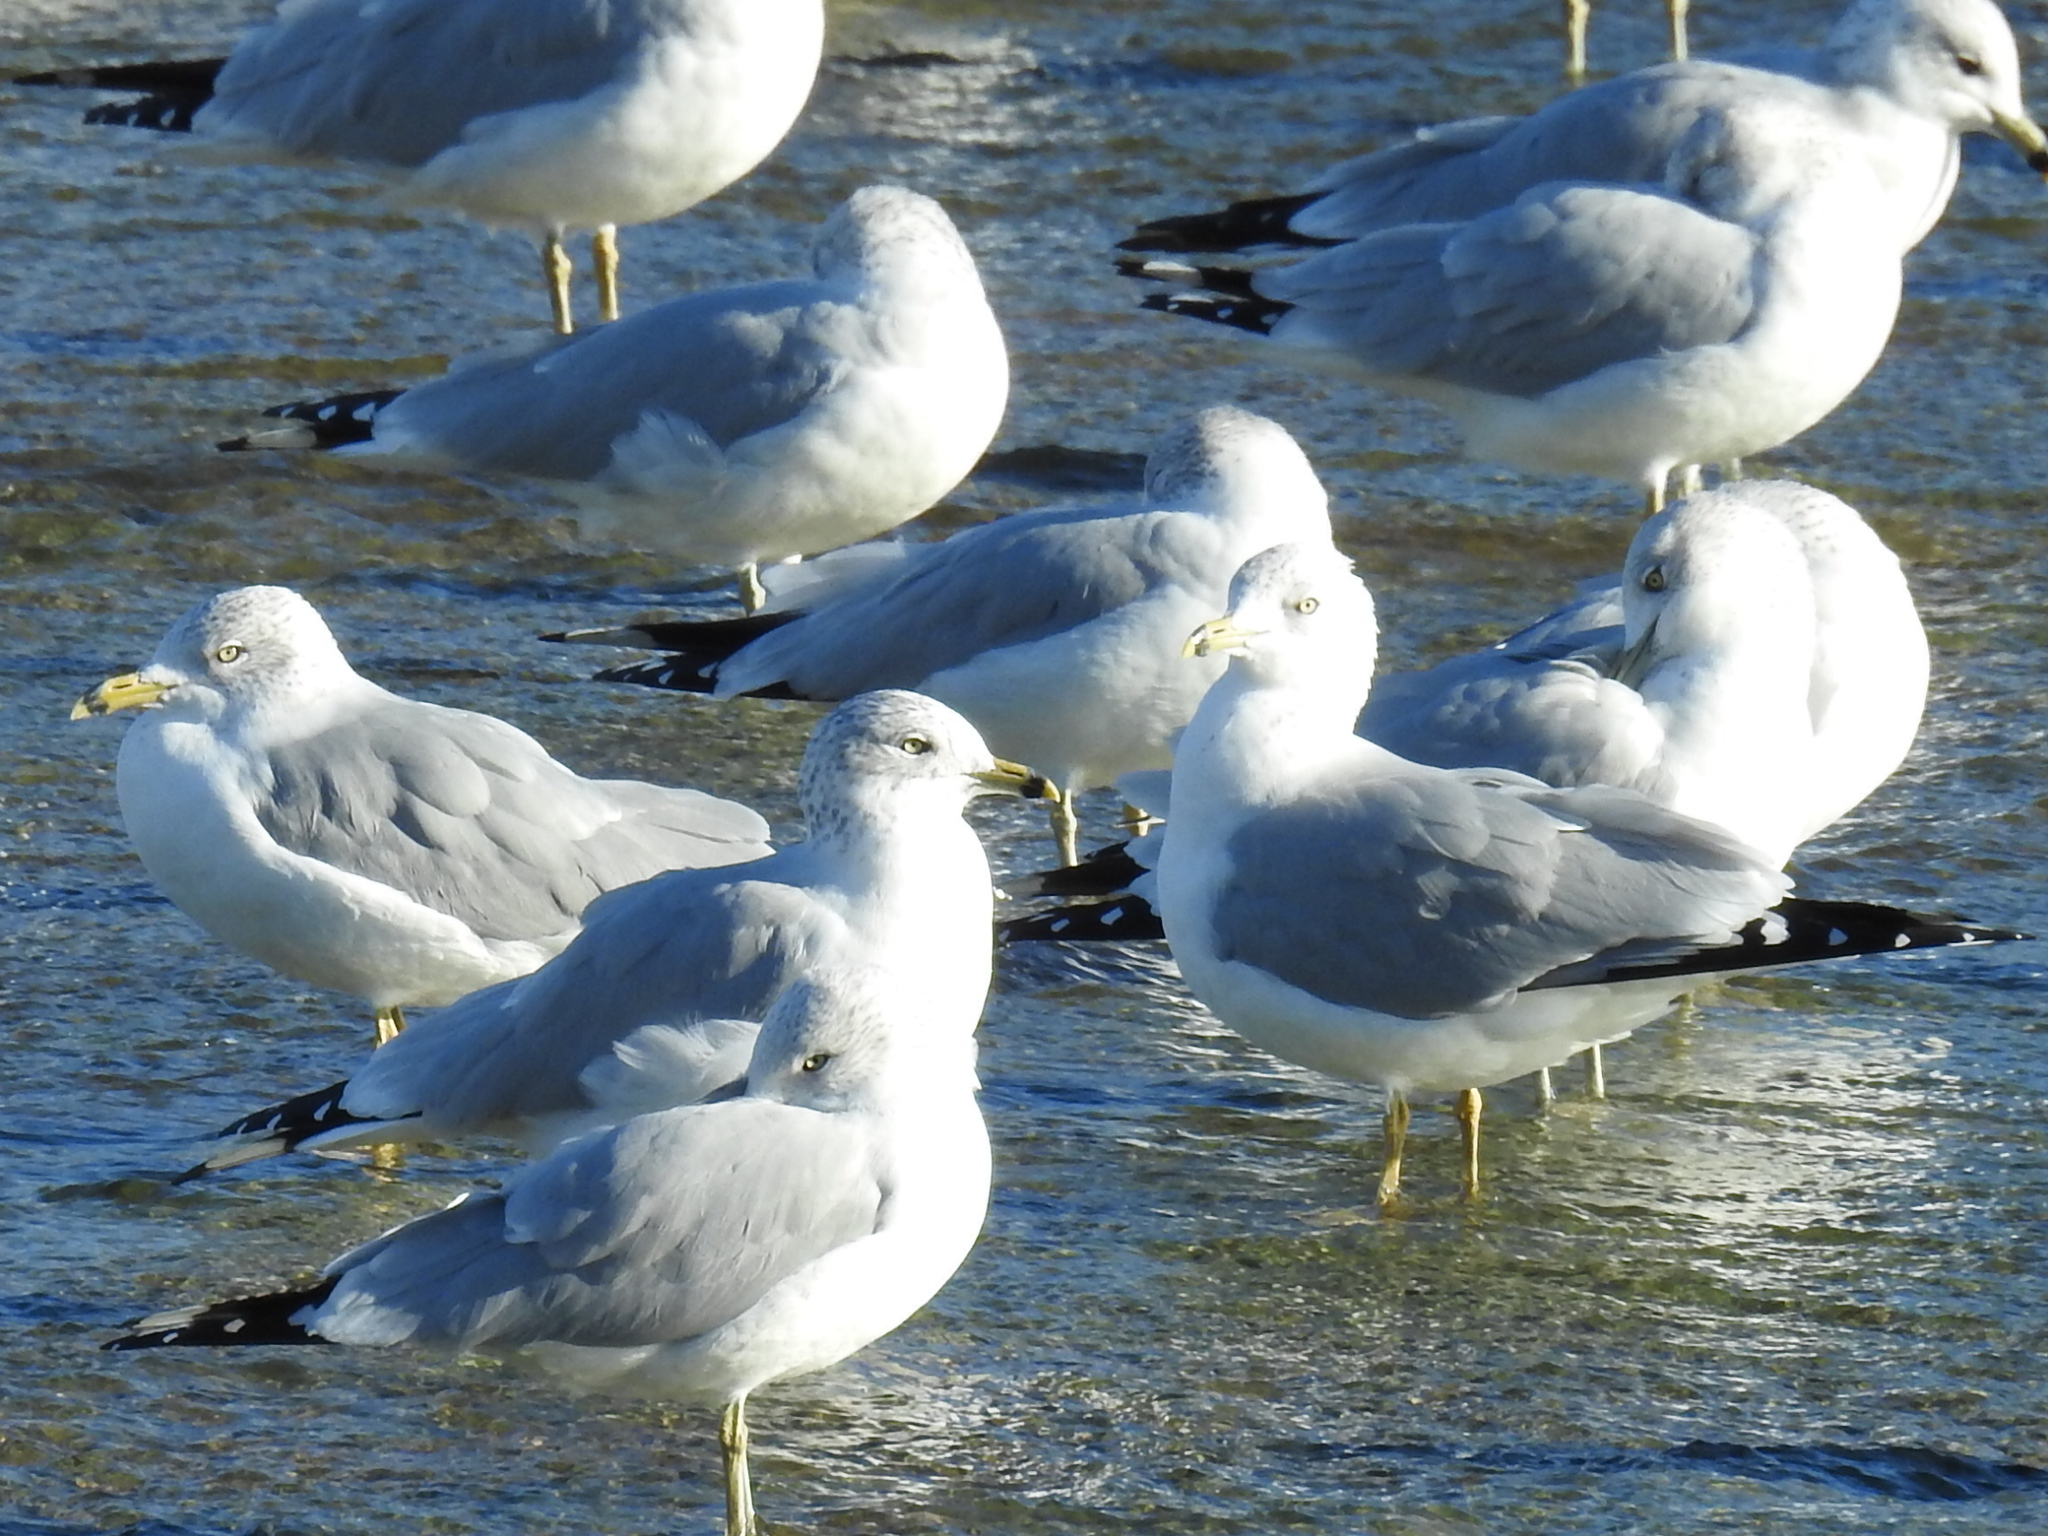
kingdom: Animalia
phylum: Chordata
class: Aves
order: Charadriiformes
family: Laridae
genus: Larus
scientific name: Larus delawarensis
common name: Ring-billed gull
